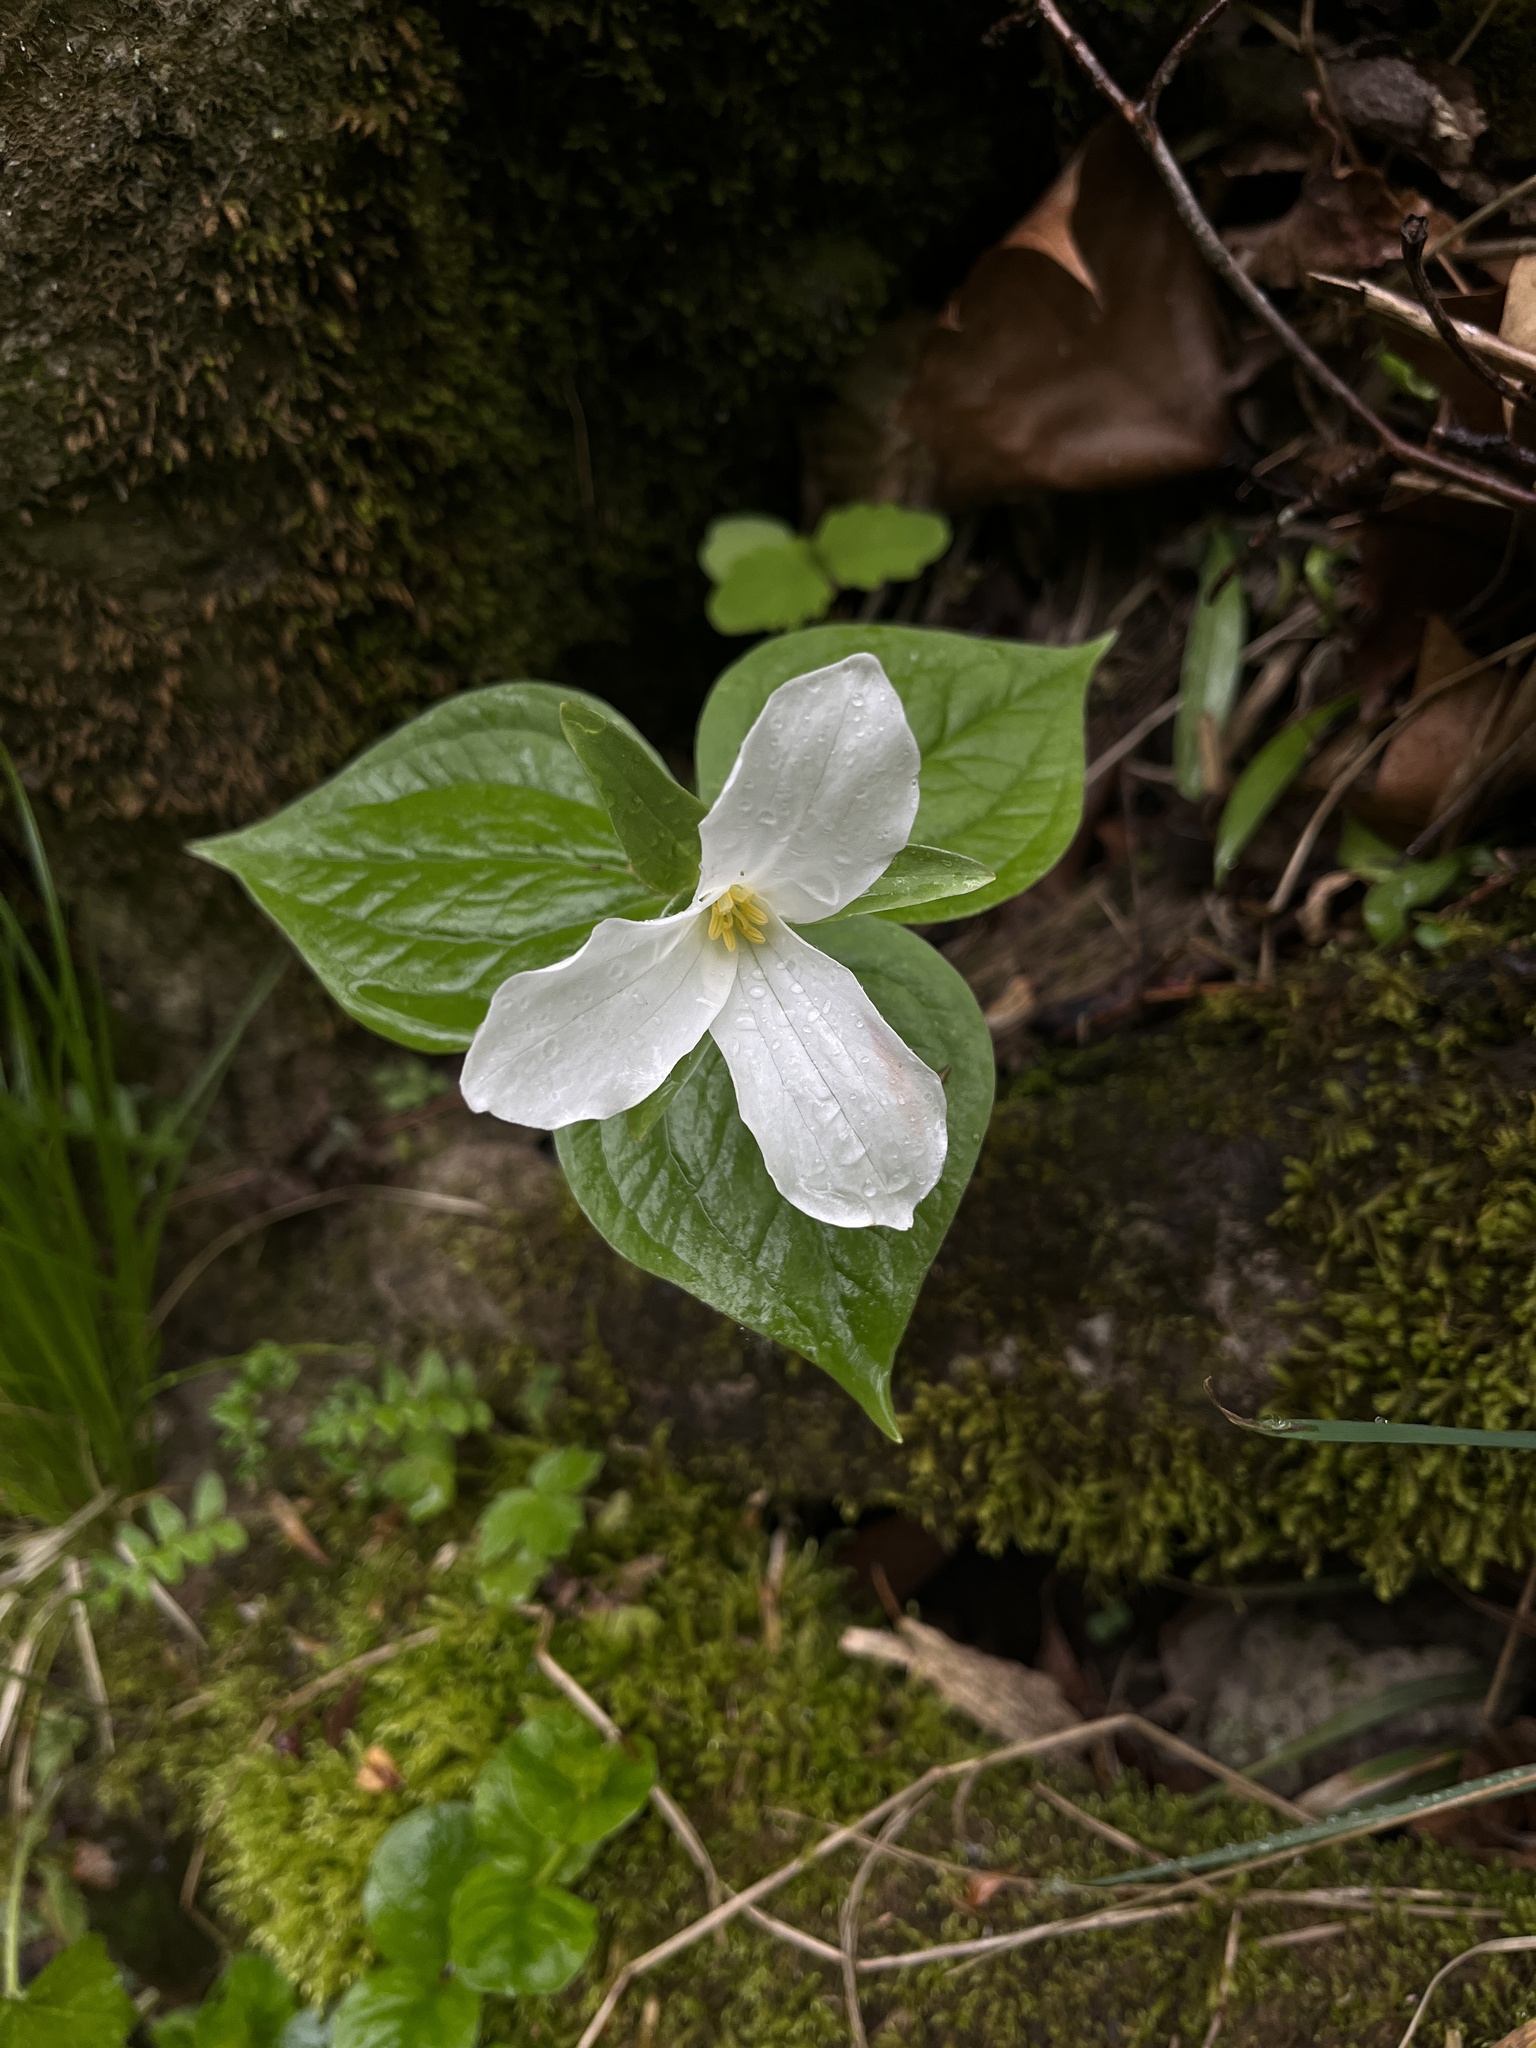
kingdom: Plantae
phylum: Tracheophyta
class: Liliopsida
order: Liliales
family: Melanthiaceae
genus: Trillium
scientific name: Trillium grandiflorum
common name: Great white trillium
